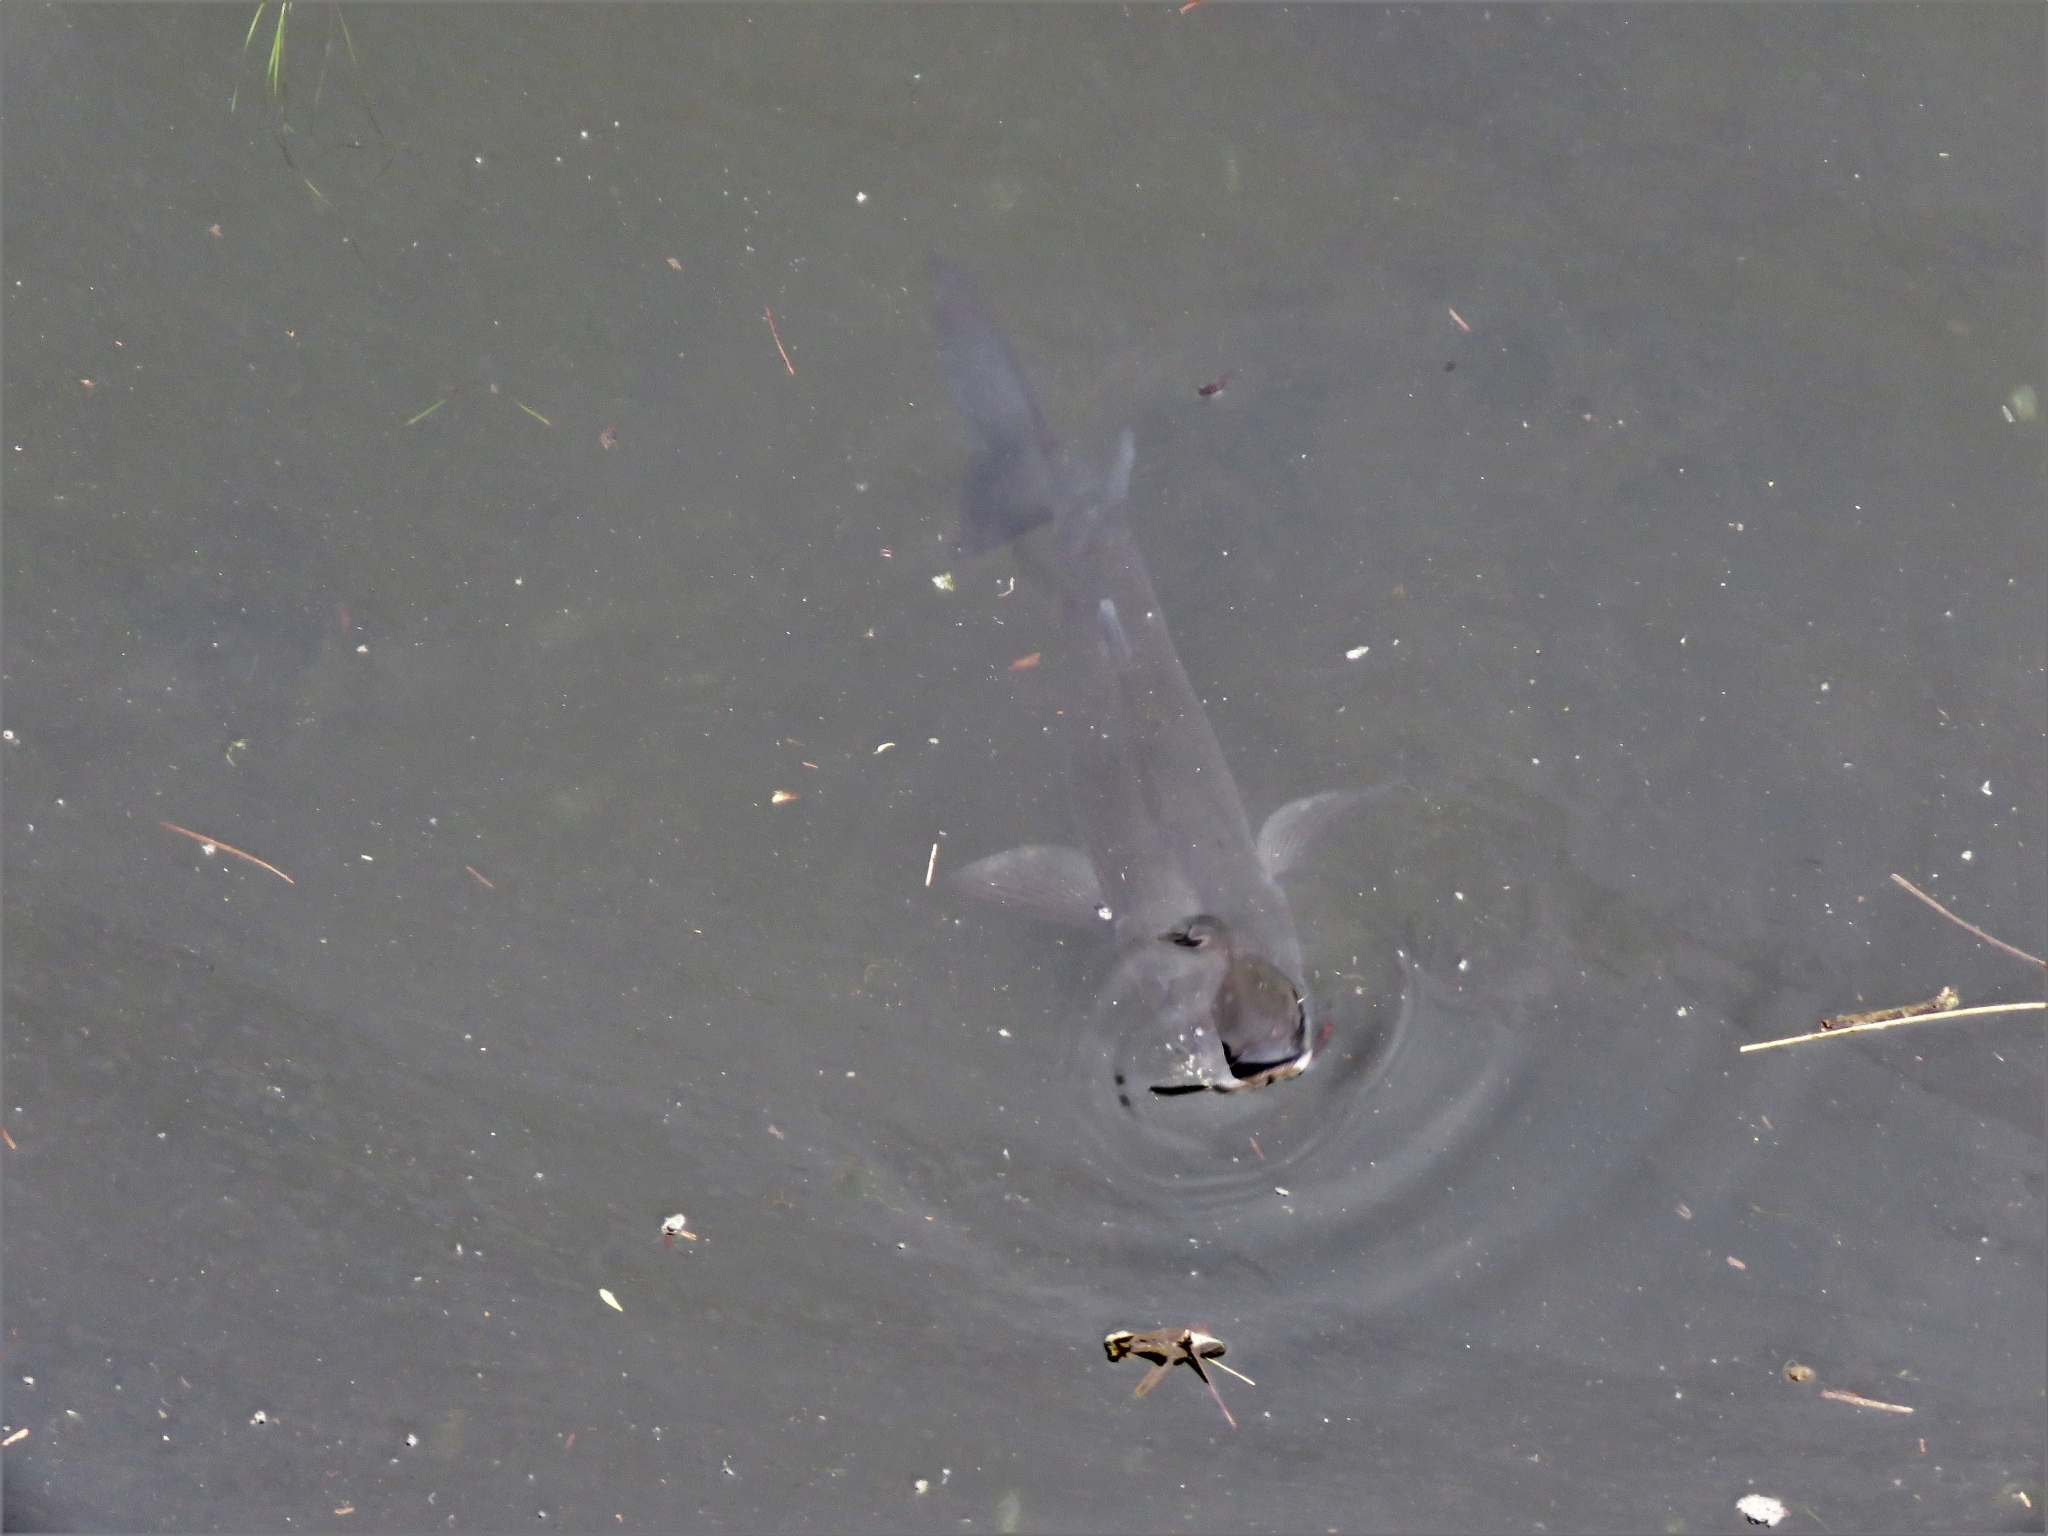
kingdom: Animalia
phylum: Chordata
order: Mugiliformes
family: Mugilidae
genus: Chelon
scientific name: Chelon labrosus
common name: Thick-lipped mullet
